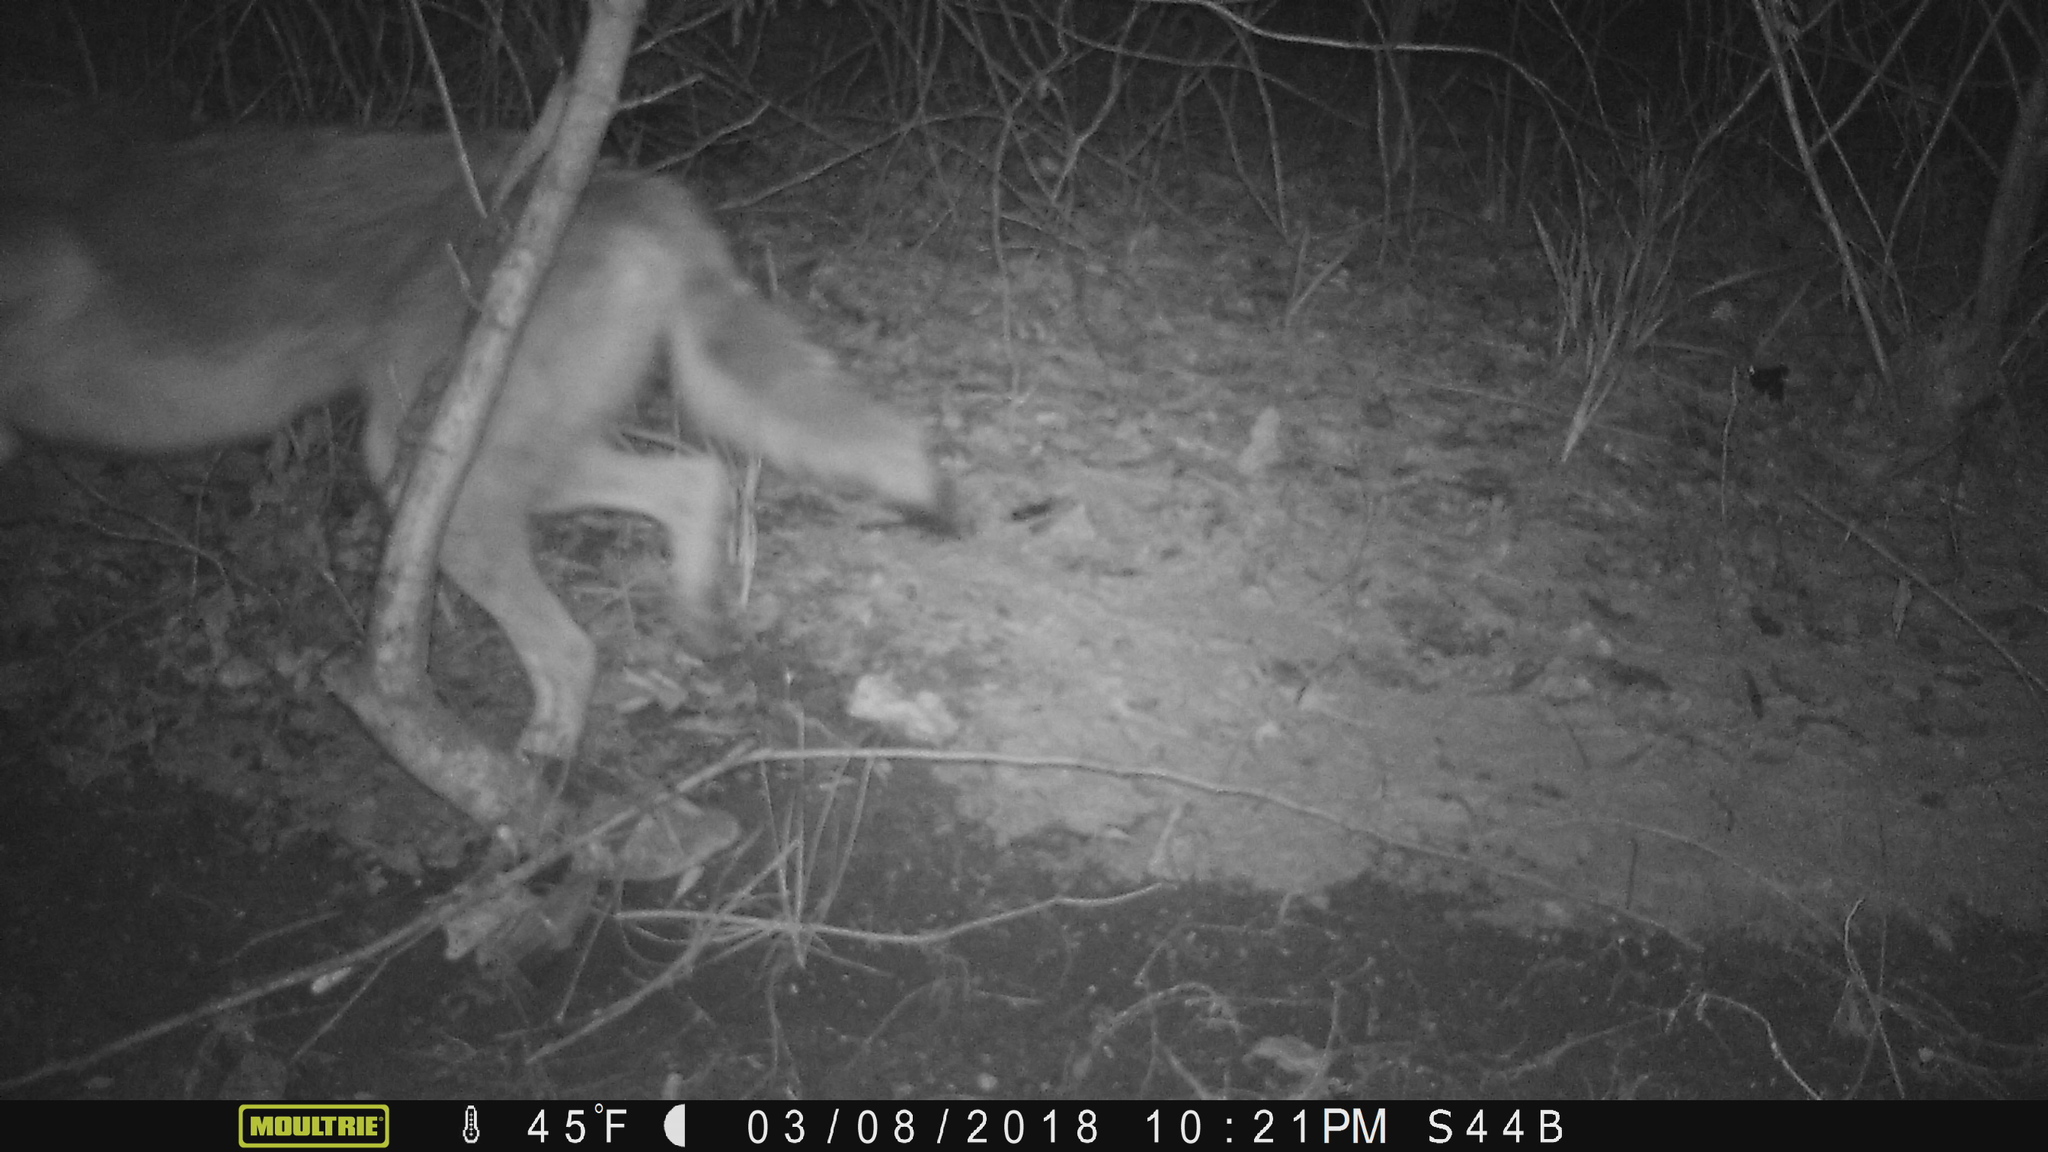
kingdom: Animalia
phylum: Chordata
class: Mammalia
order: Carnivora
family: Canidae
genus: Canis
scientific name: Canis latrans
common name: Coyote
